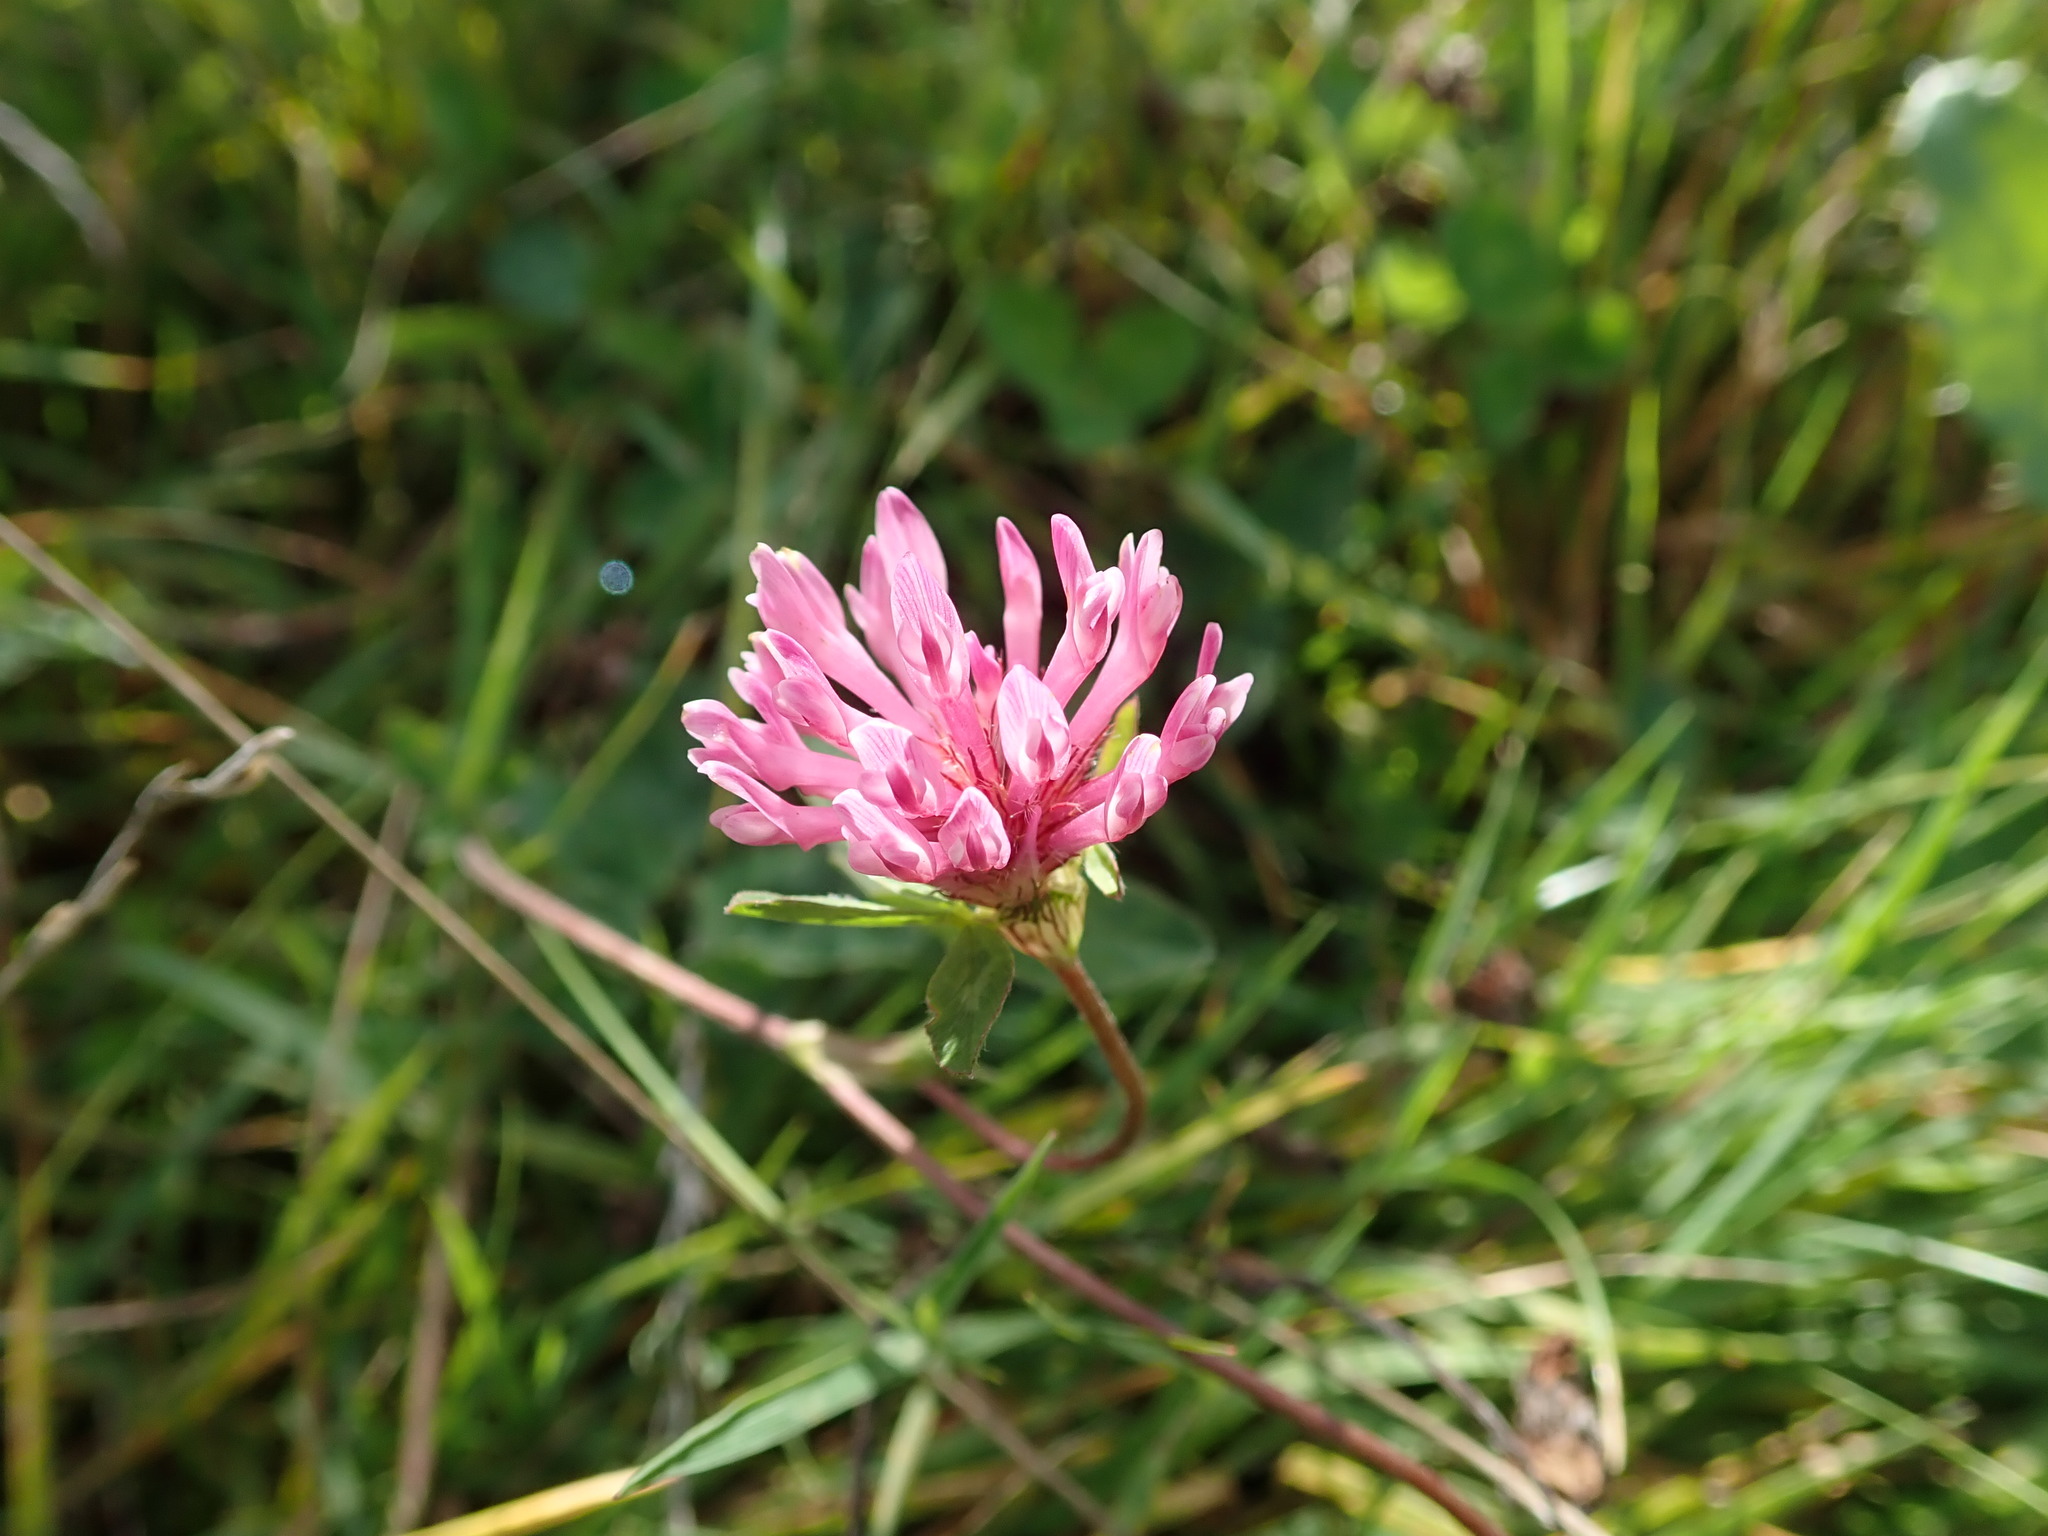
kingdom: Plantae
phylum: Tracheophyta
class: Magnoliopsida
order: Fabales
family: Fabaceae
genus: Trifolium
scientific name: Trifolium pratense
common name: Red clover
